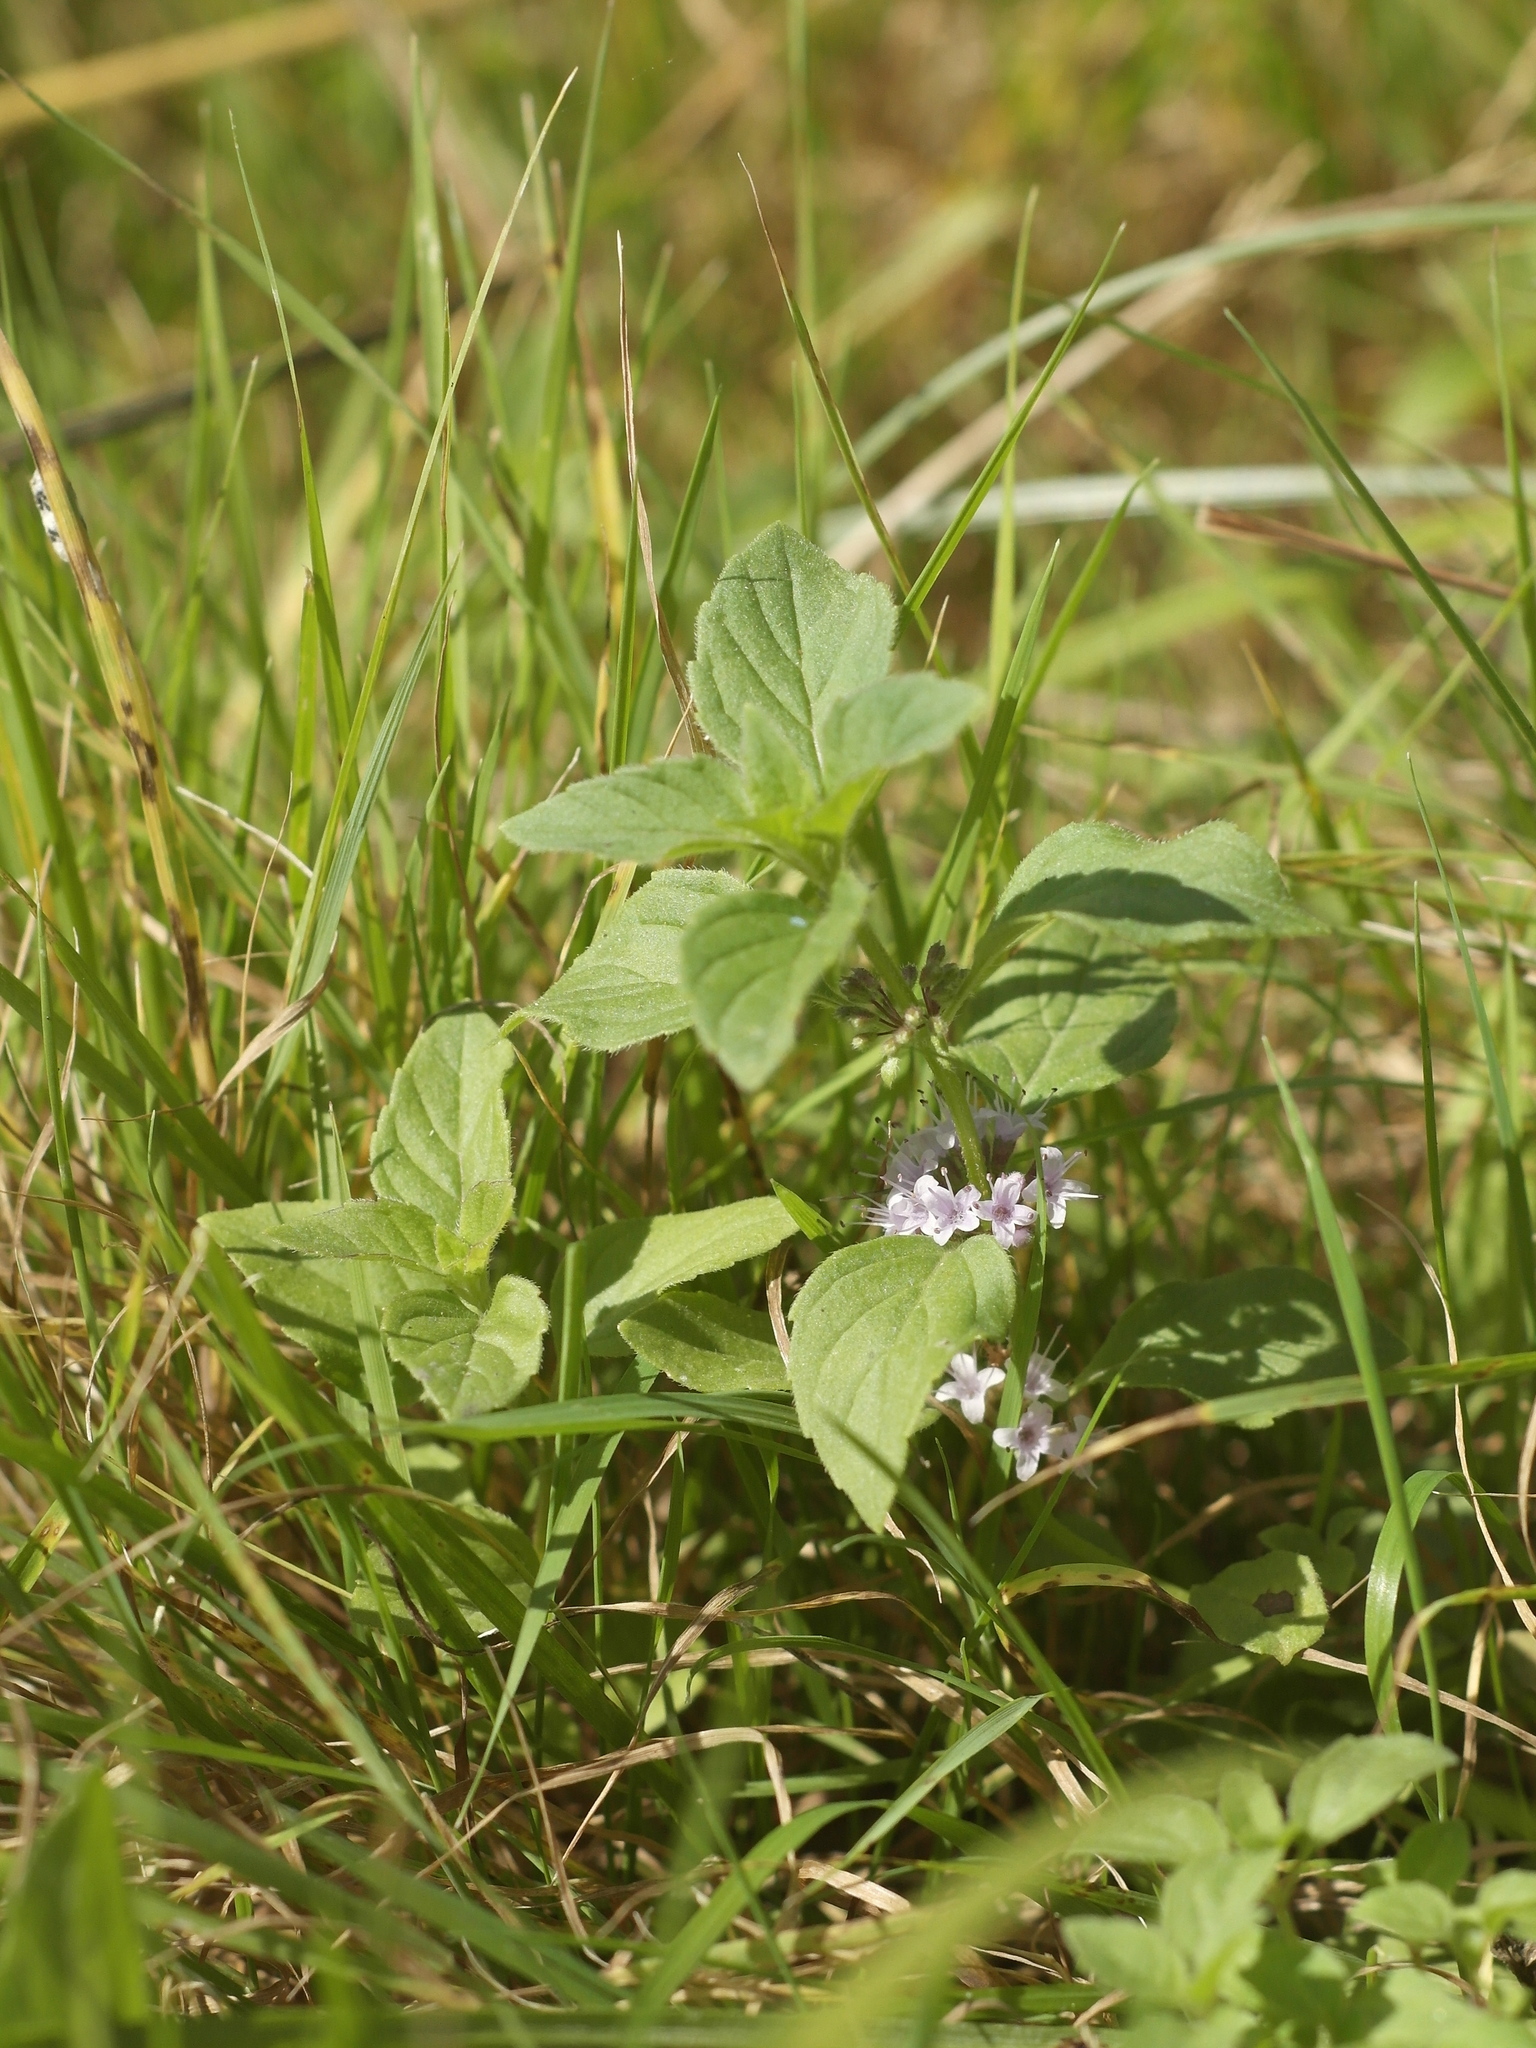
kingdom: Plantae
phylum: Tracheophyta
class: Magnoliopsida
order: Lamiales
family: Lamiaceae
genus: Mentha
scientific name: Mentha arvensis
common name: Corn mint
